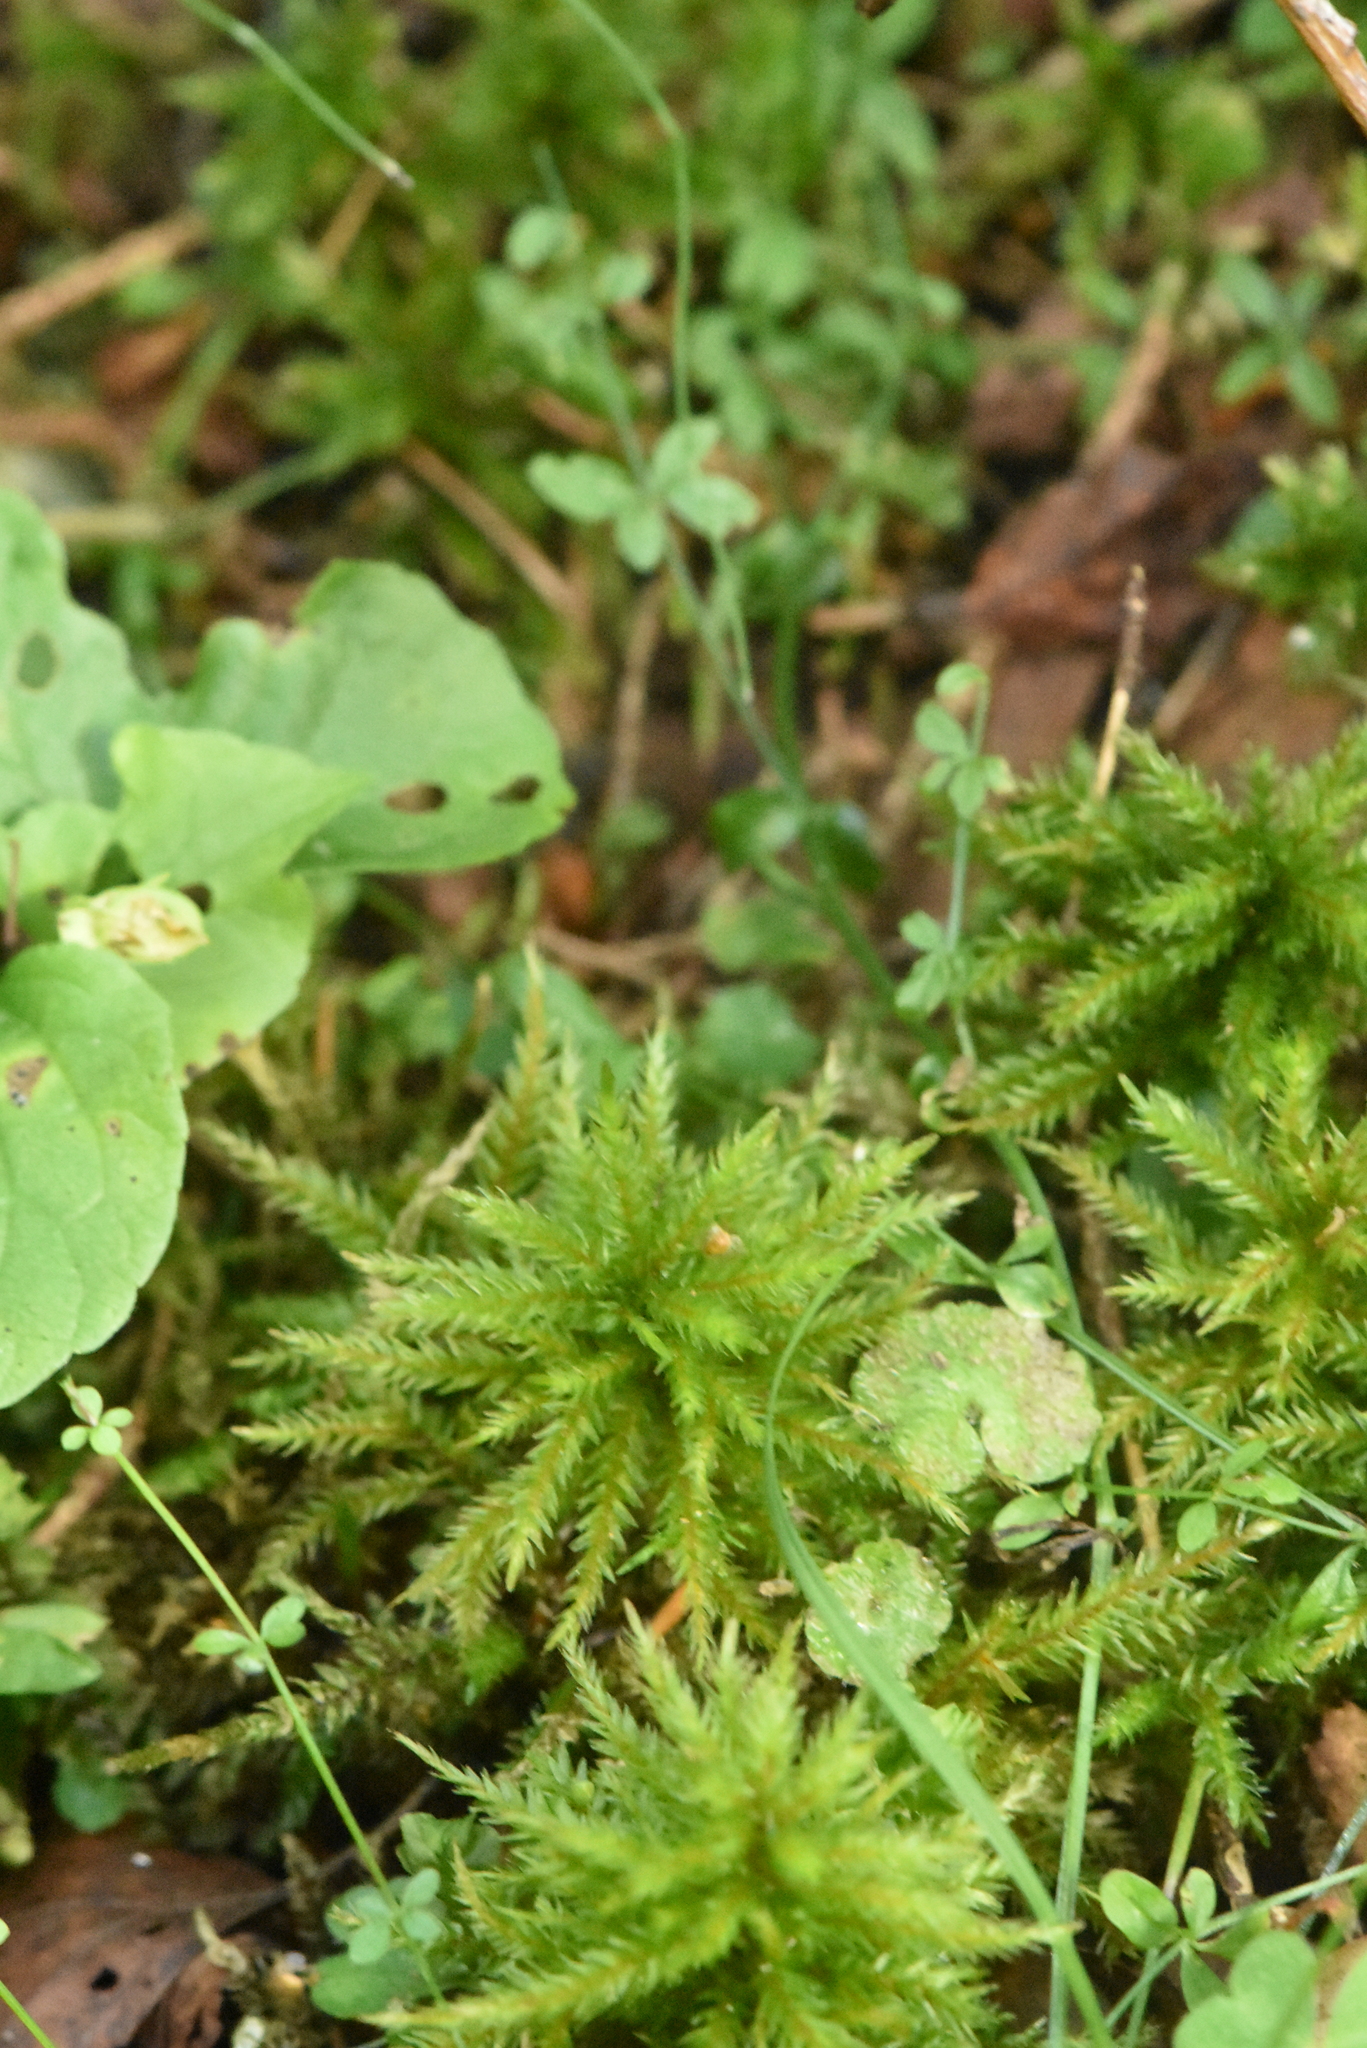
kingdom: Plantae
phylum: Bryophyta
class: Bryopsida
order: Hypnales
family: Climaciaceae
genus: Climacium
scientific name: Climacium dendroides
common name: Northern tree moss
